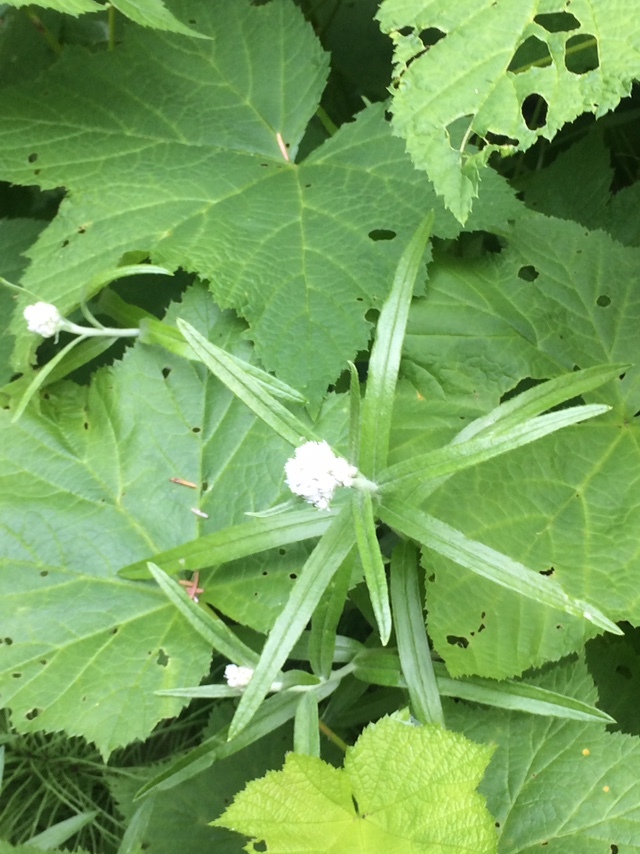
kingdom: Plantae
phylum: Tracheophyta
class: Magnoliopsida
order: Asterales
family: Asteraceae
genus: Anaphalis
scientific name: Anaphalis margaritacea
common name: Pearly everlasting
